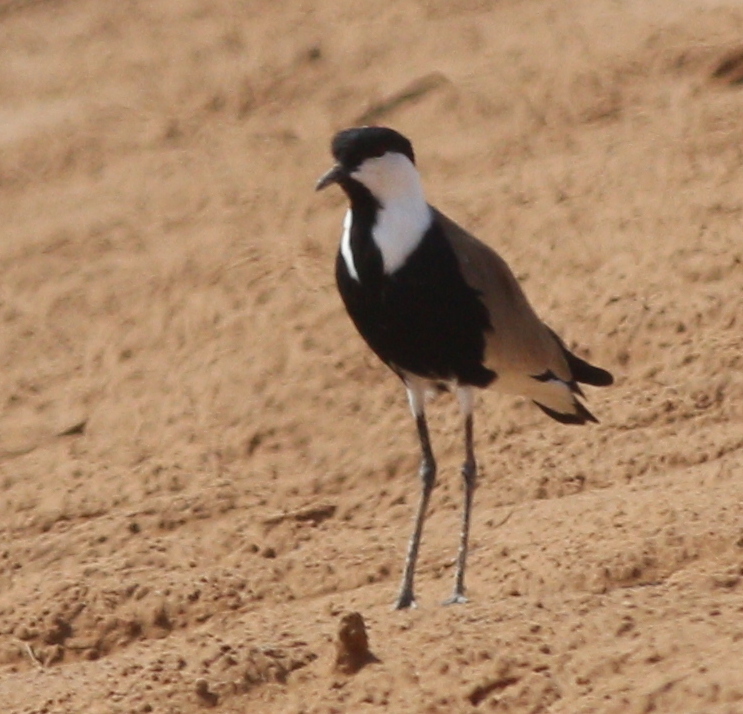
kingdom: Animalia
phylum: Chordata
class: Aves
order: Charadriiformes
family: Charadriidae
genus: Vanellus
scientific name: Vanellus spinosus
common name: Spur-winged lapwing
